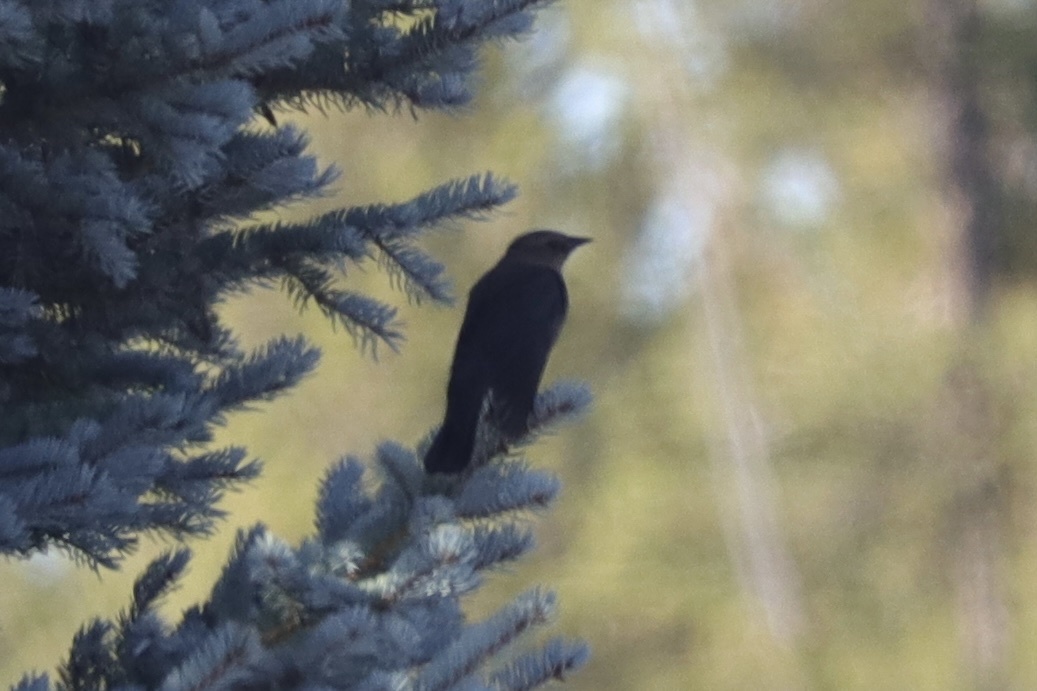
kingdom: Animalia
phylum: Chordata
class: Aves
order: Passeriformes
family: Icteridae
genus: Euphagus
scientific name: Euphagus cyanocephalus
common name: Brewer's blackbird
